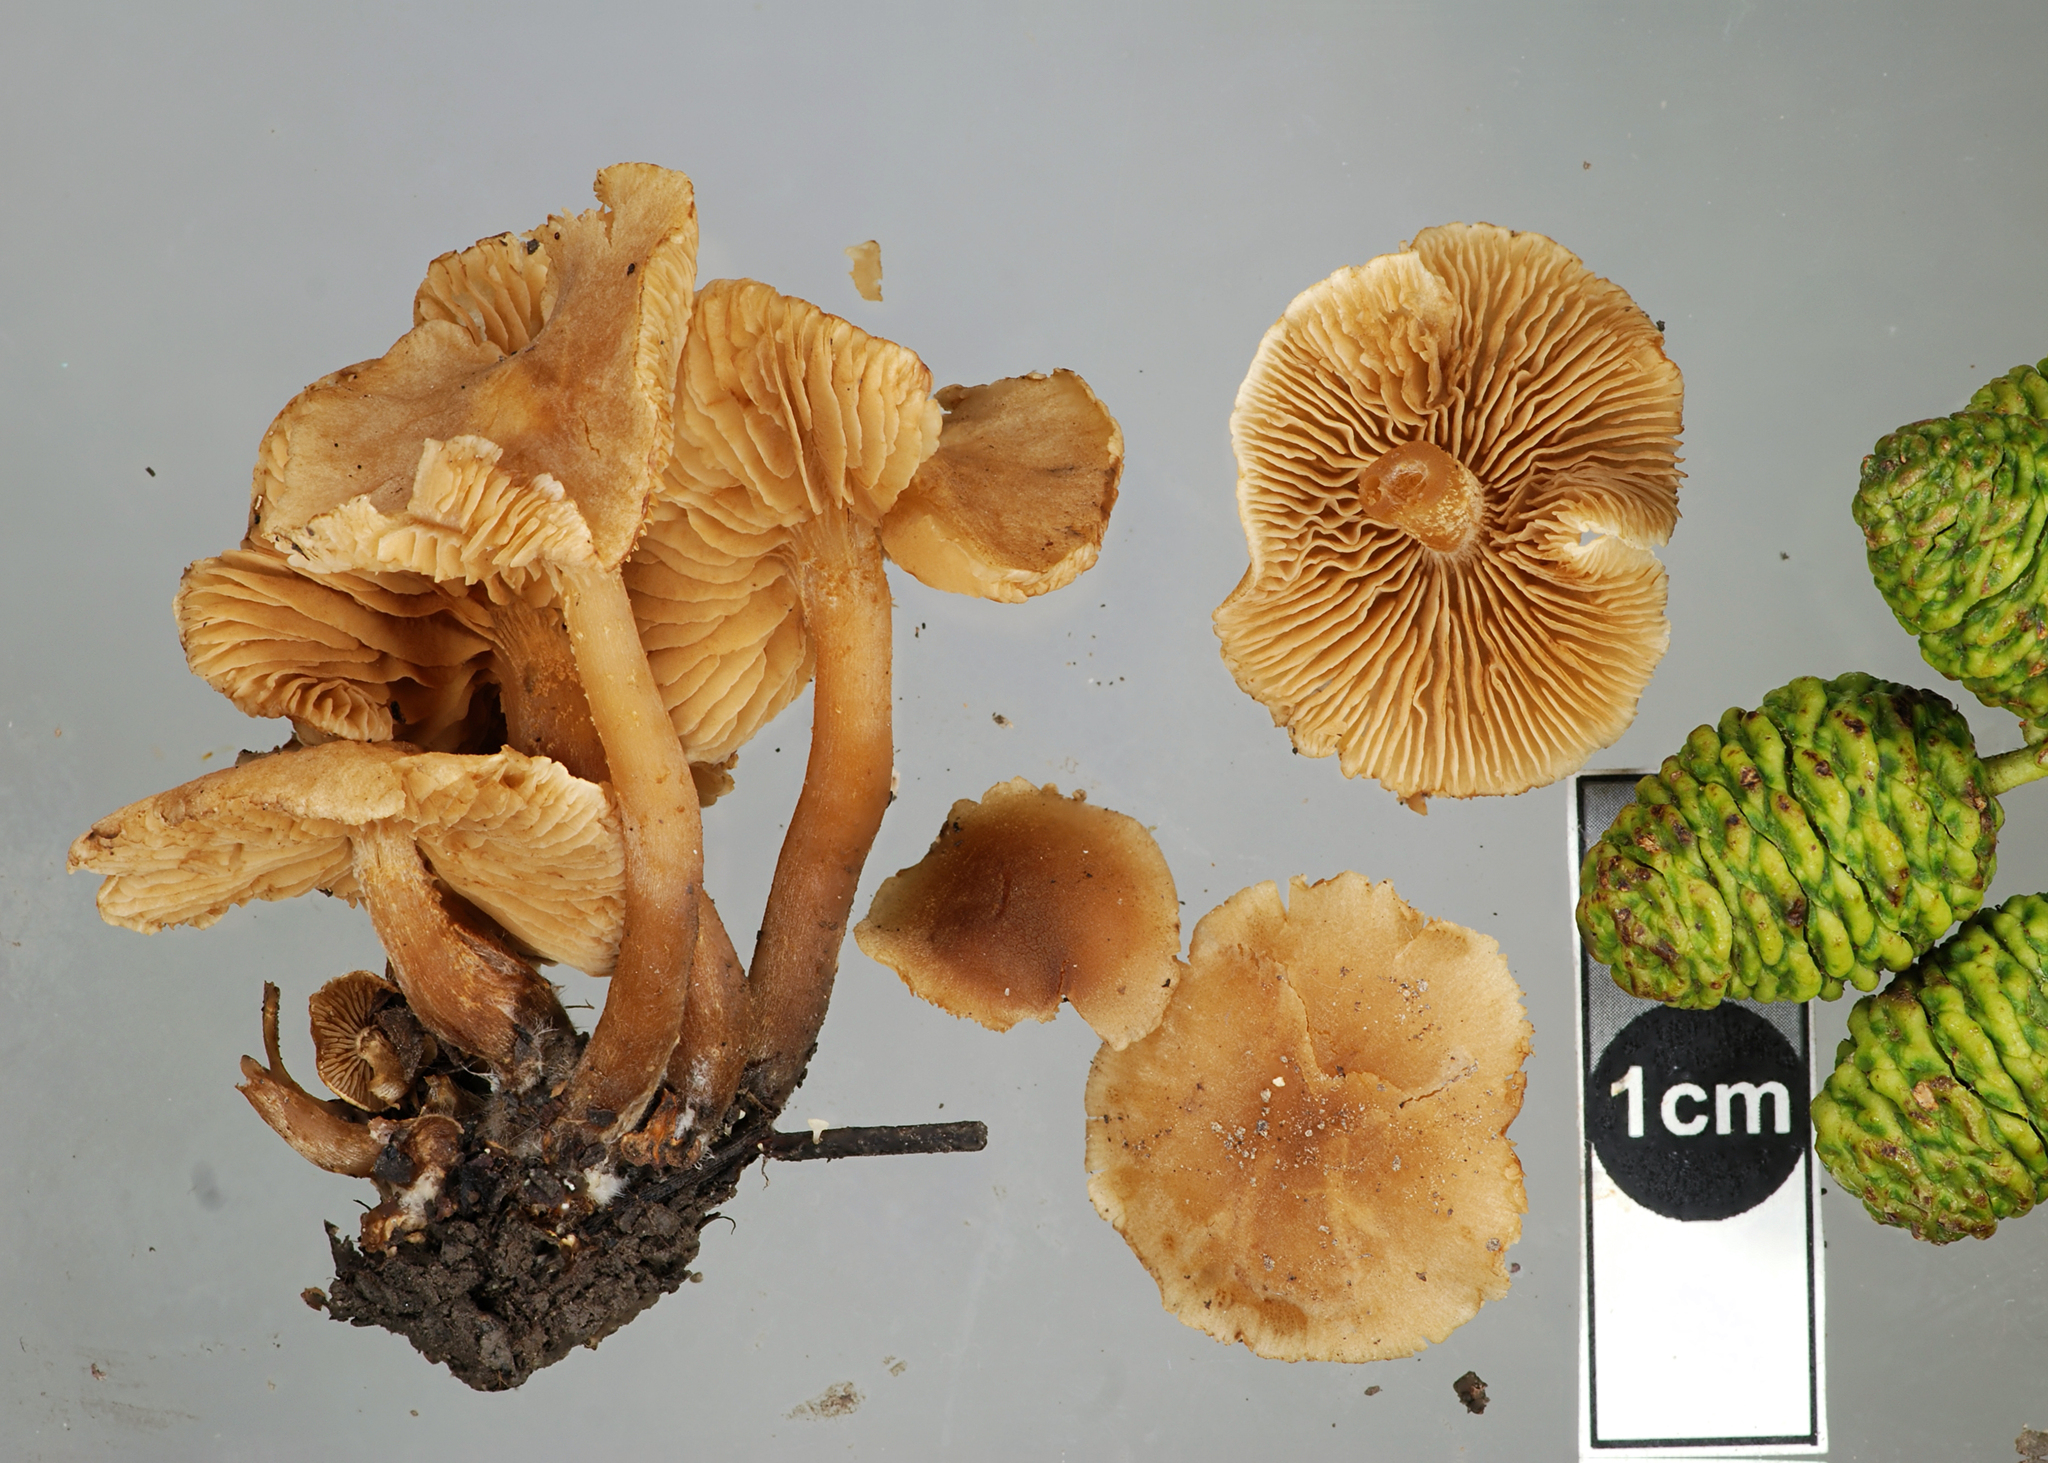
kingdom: Fungi
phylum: Basidiomycota
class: Agaricomycetes
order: Agaricales
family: Hymenogastraceae
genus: Naucoria
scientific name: Naucoria escharioides
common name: Ochre aldercap
